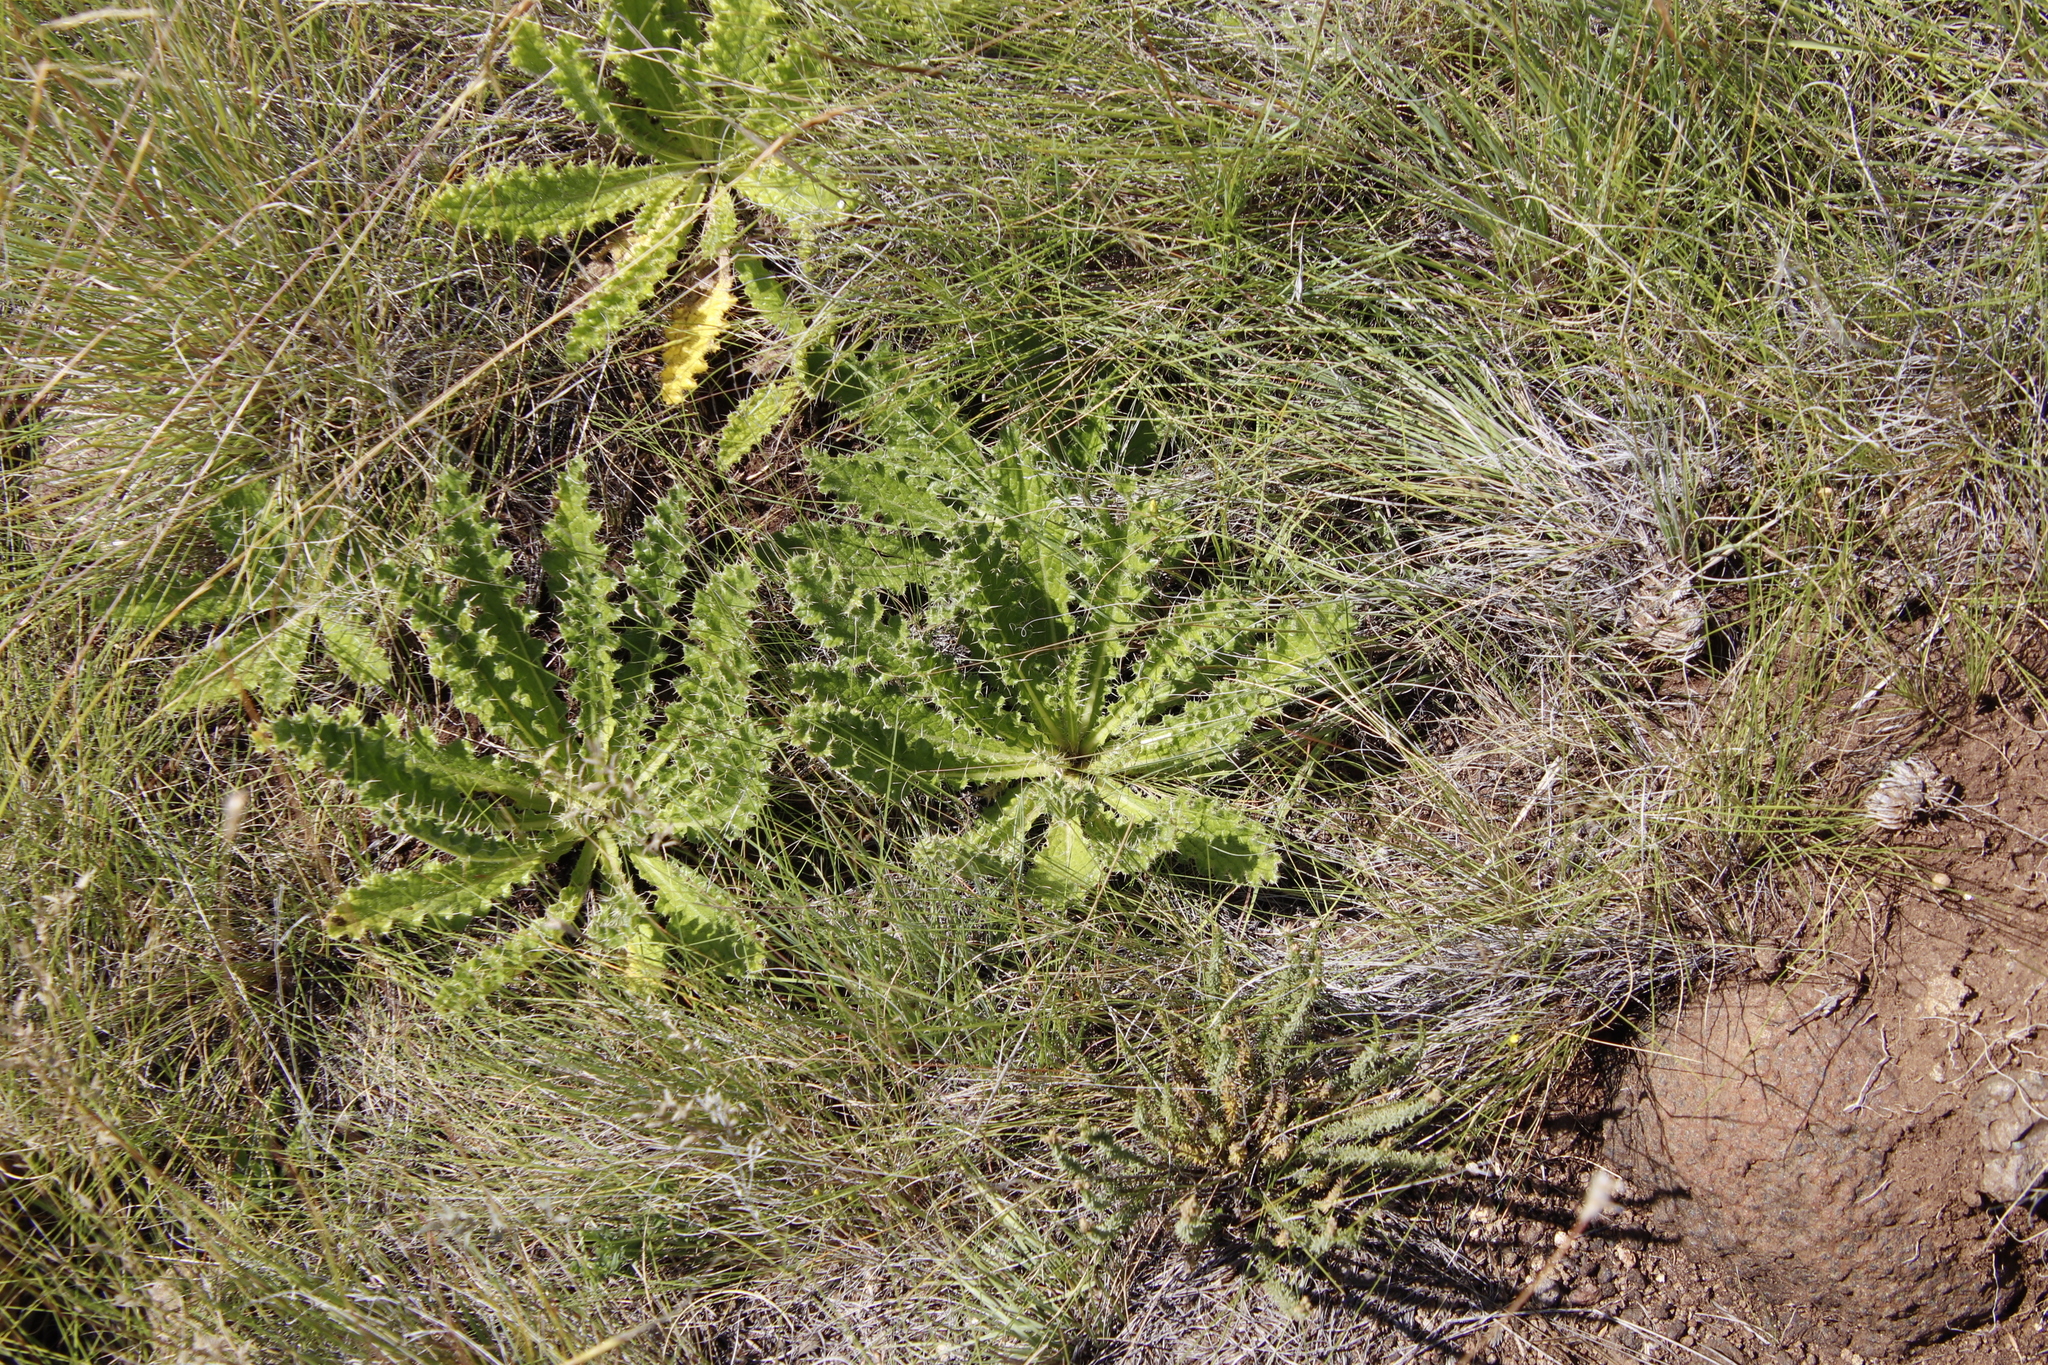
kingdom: Plantae
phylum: Tracheophyta
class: Magnoliopsida
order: Asterales
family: Asteraceae
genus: Berkheya
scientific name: Berkheya purpurea
